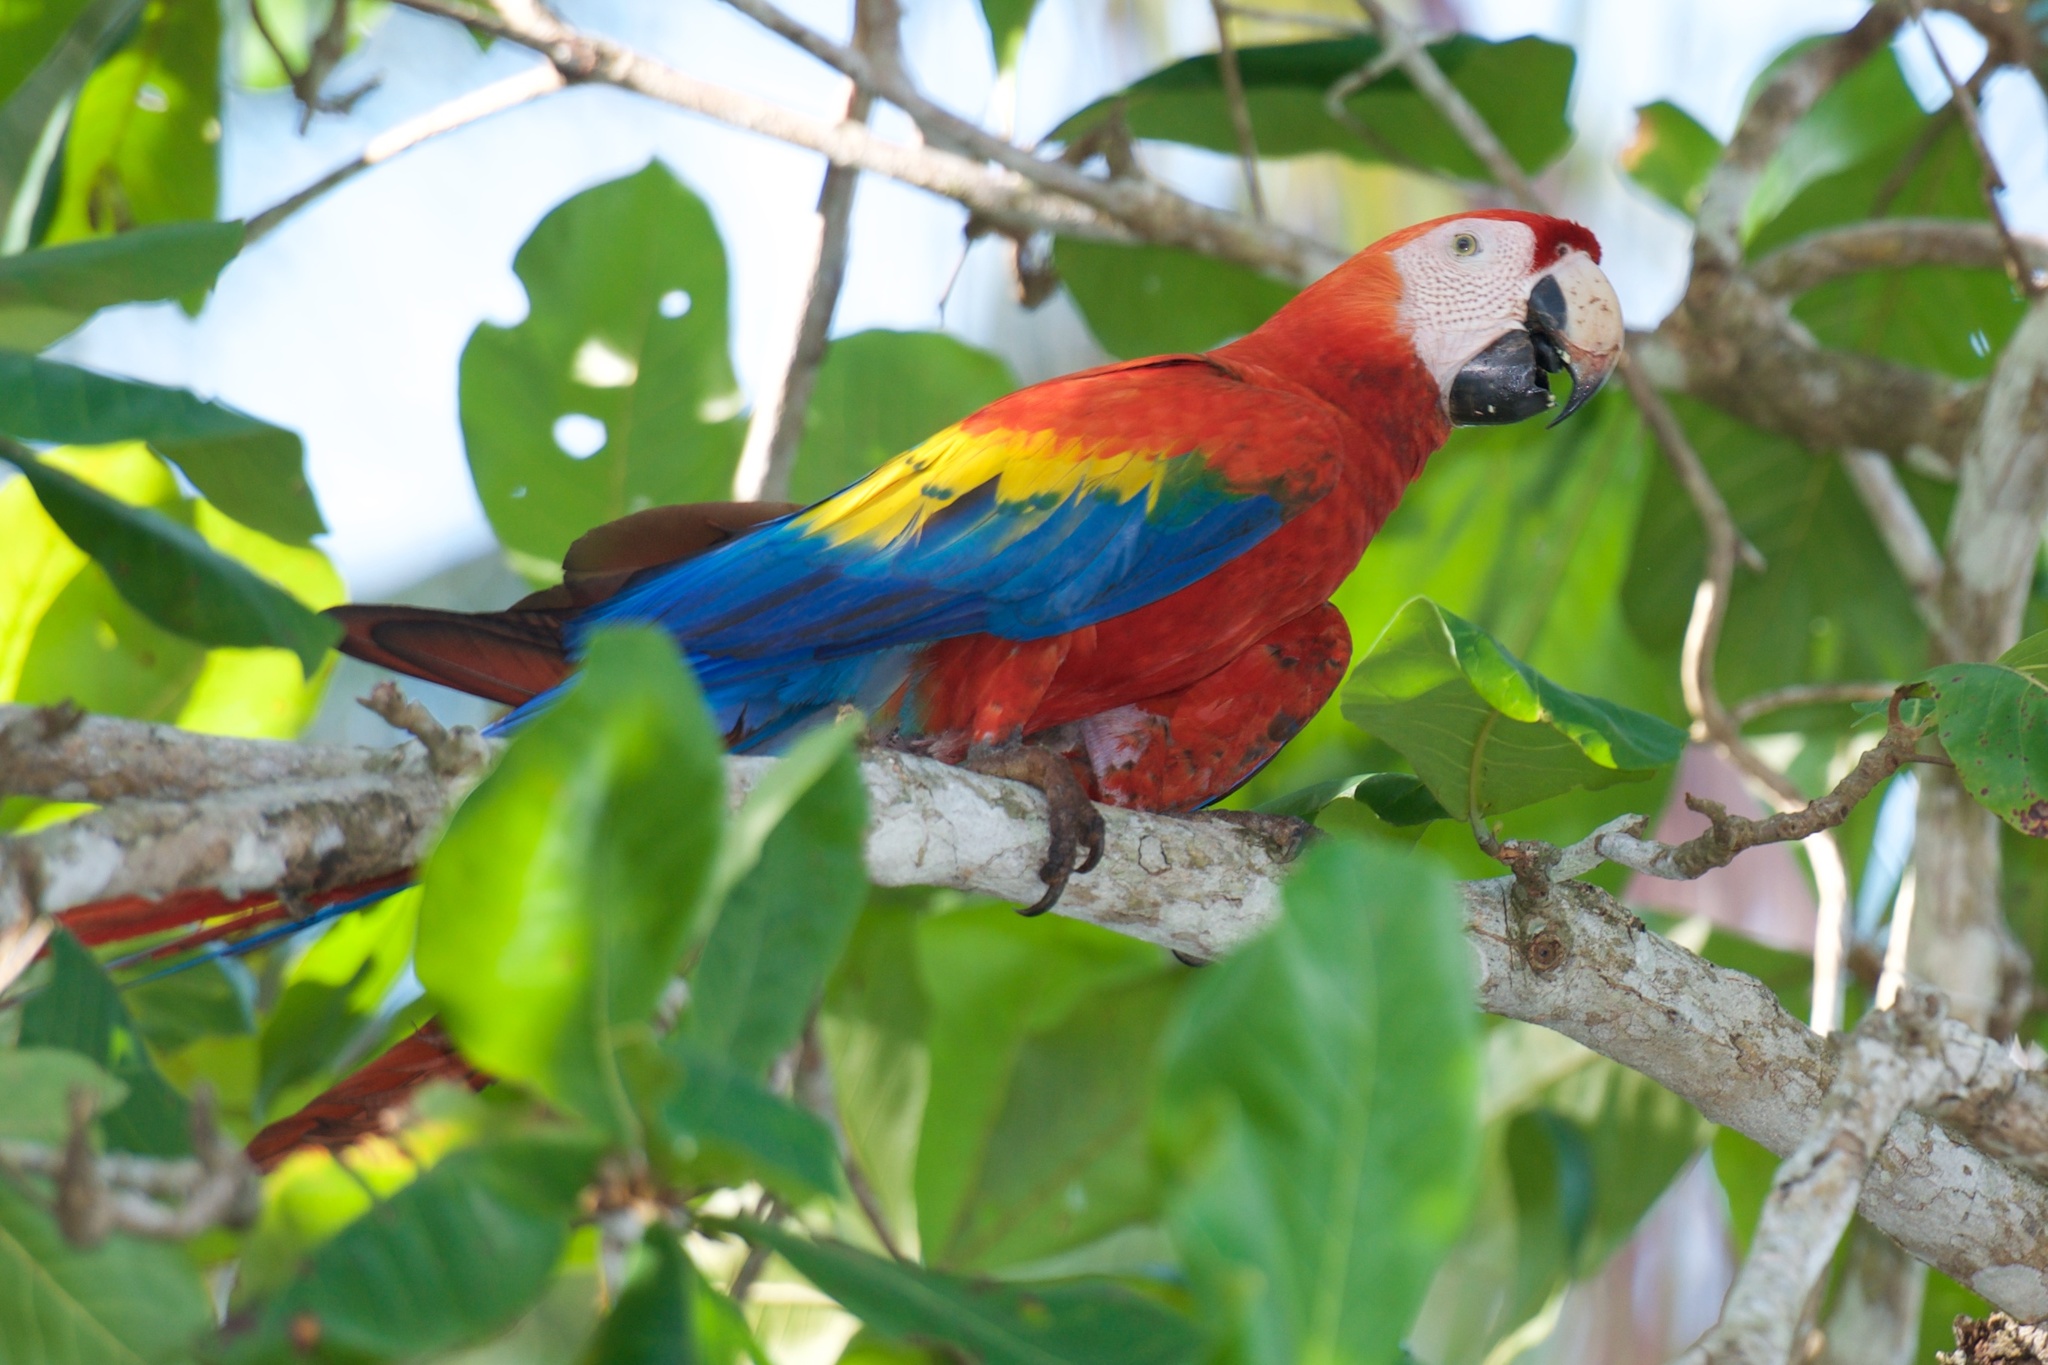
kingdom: Animalia
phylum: Chordata
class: Aves
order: Psittaciformes
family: Psittacidae
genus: Ara
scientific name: Ara macao
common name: Scarlet macaw
